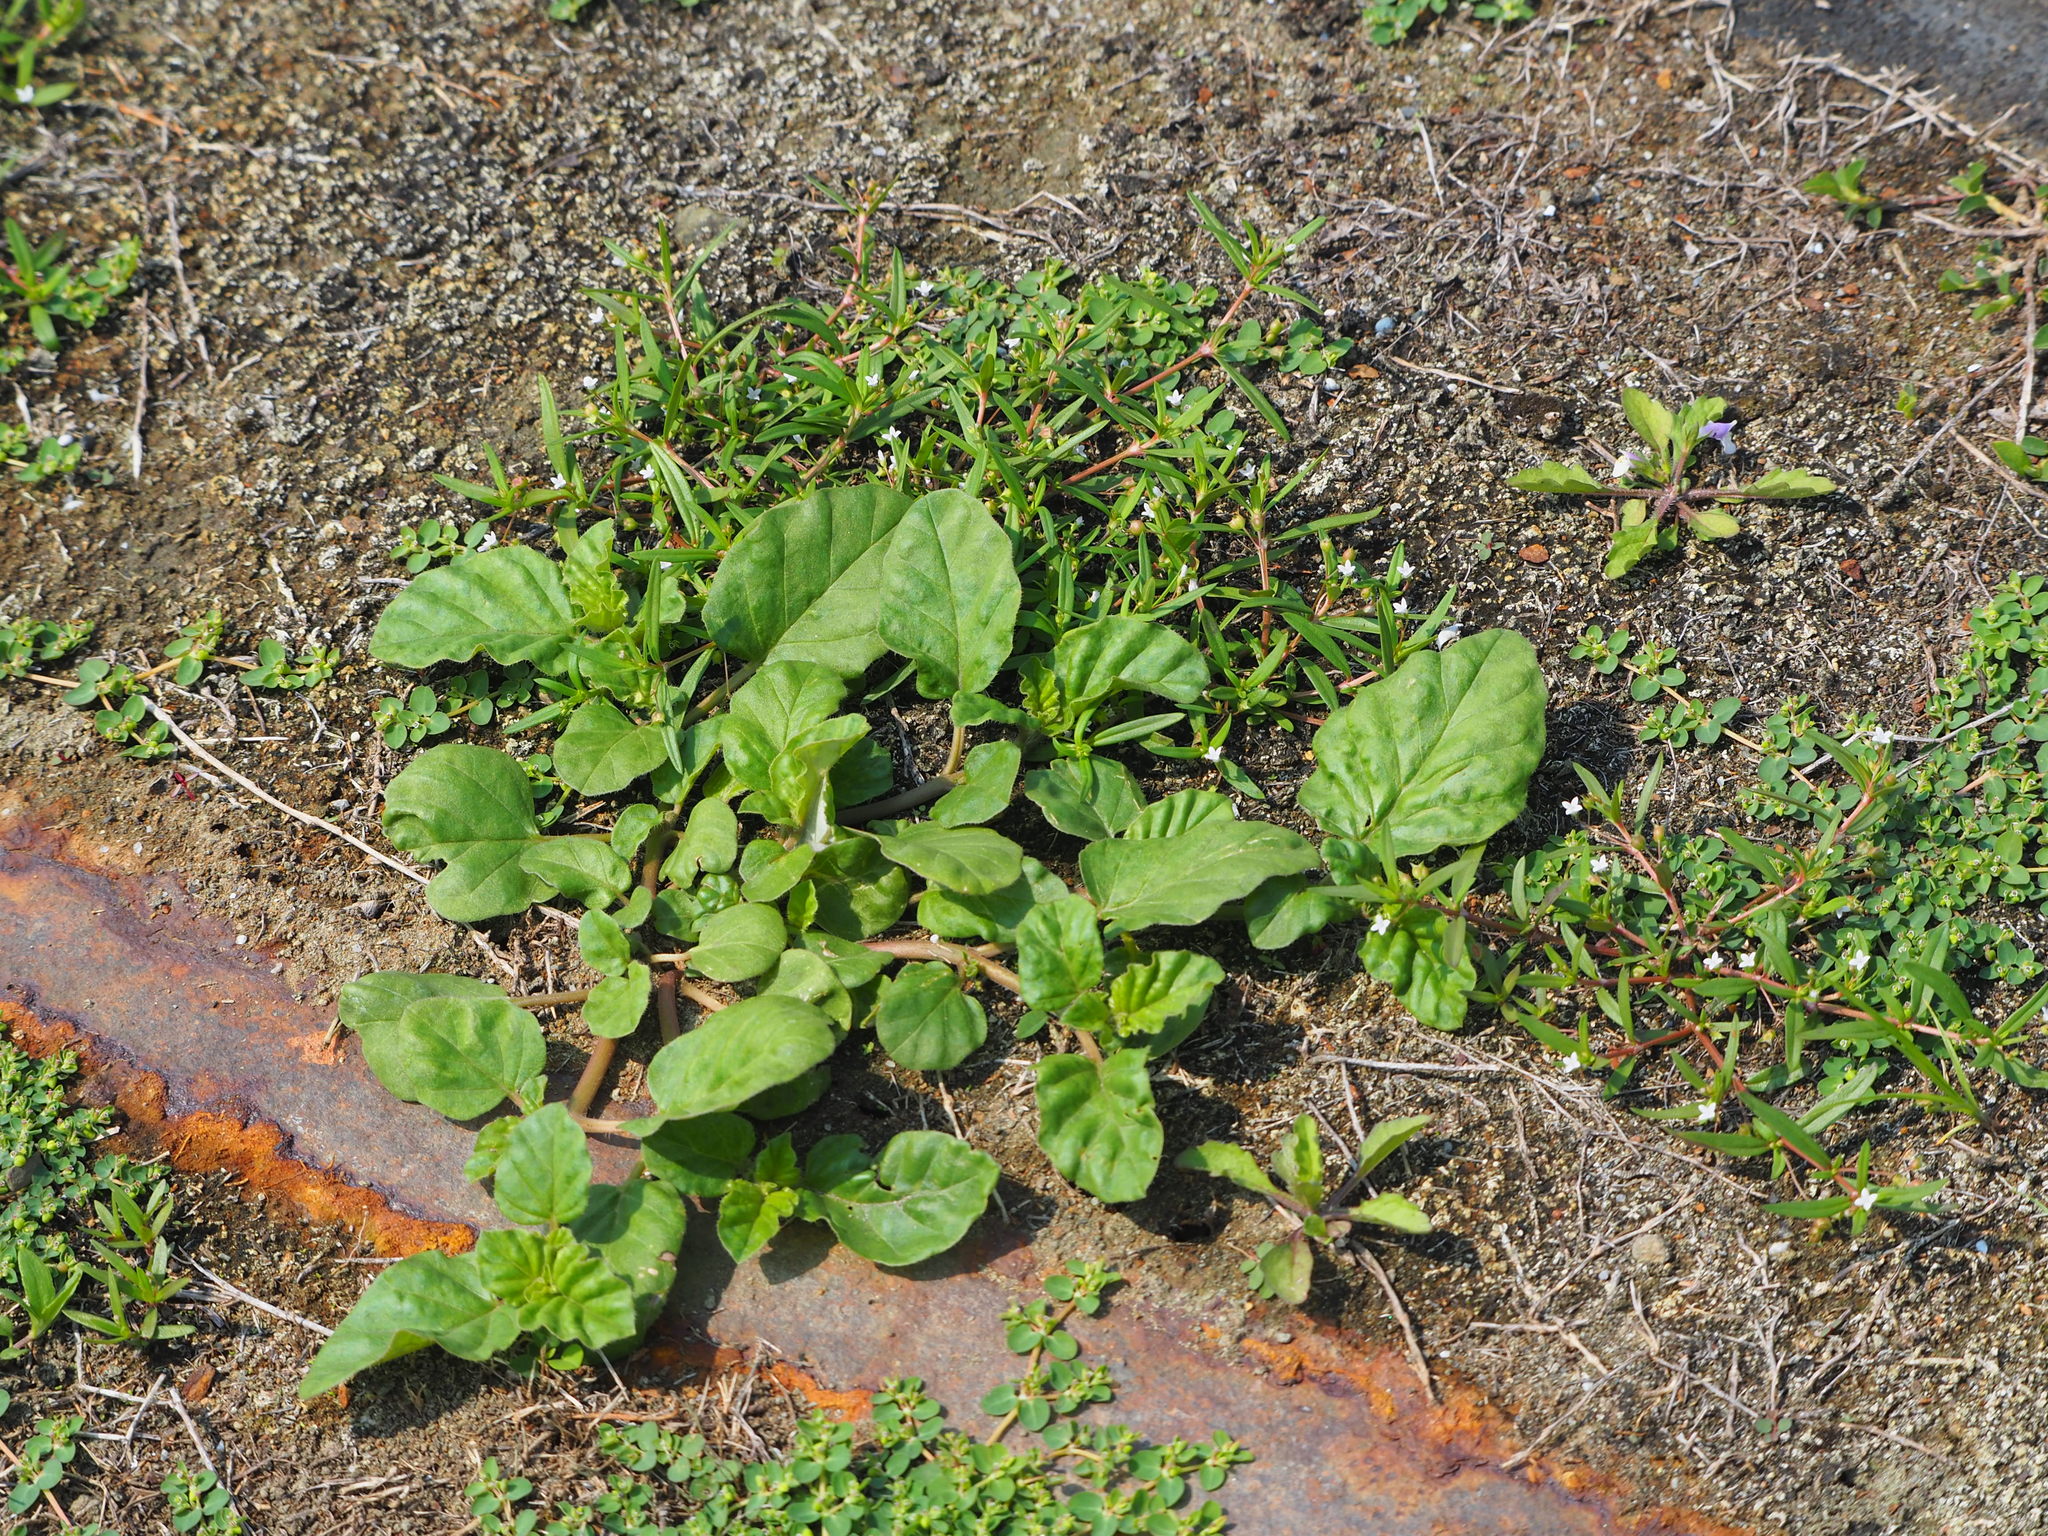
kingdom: Plantae
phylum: Tracheophyta
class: Magnoliopsida
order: Caryophyllales
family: Nyctaginaceae
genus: Boerhavia
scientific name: Boerhavia coccinea
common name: Scarlet spiderling
